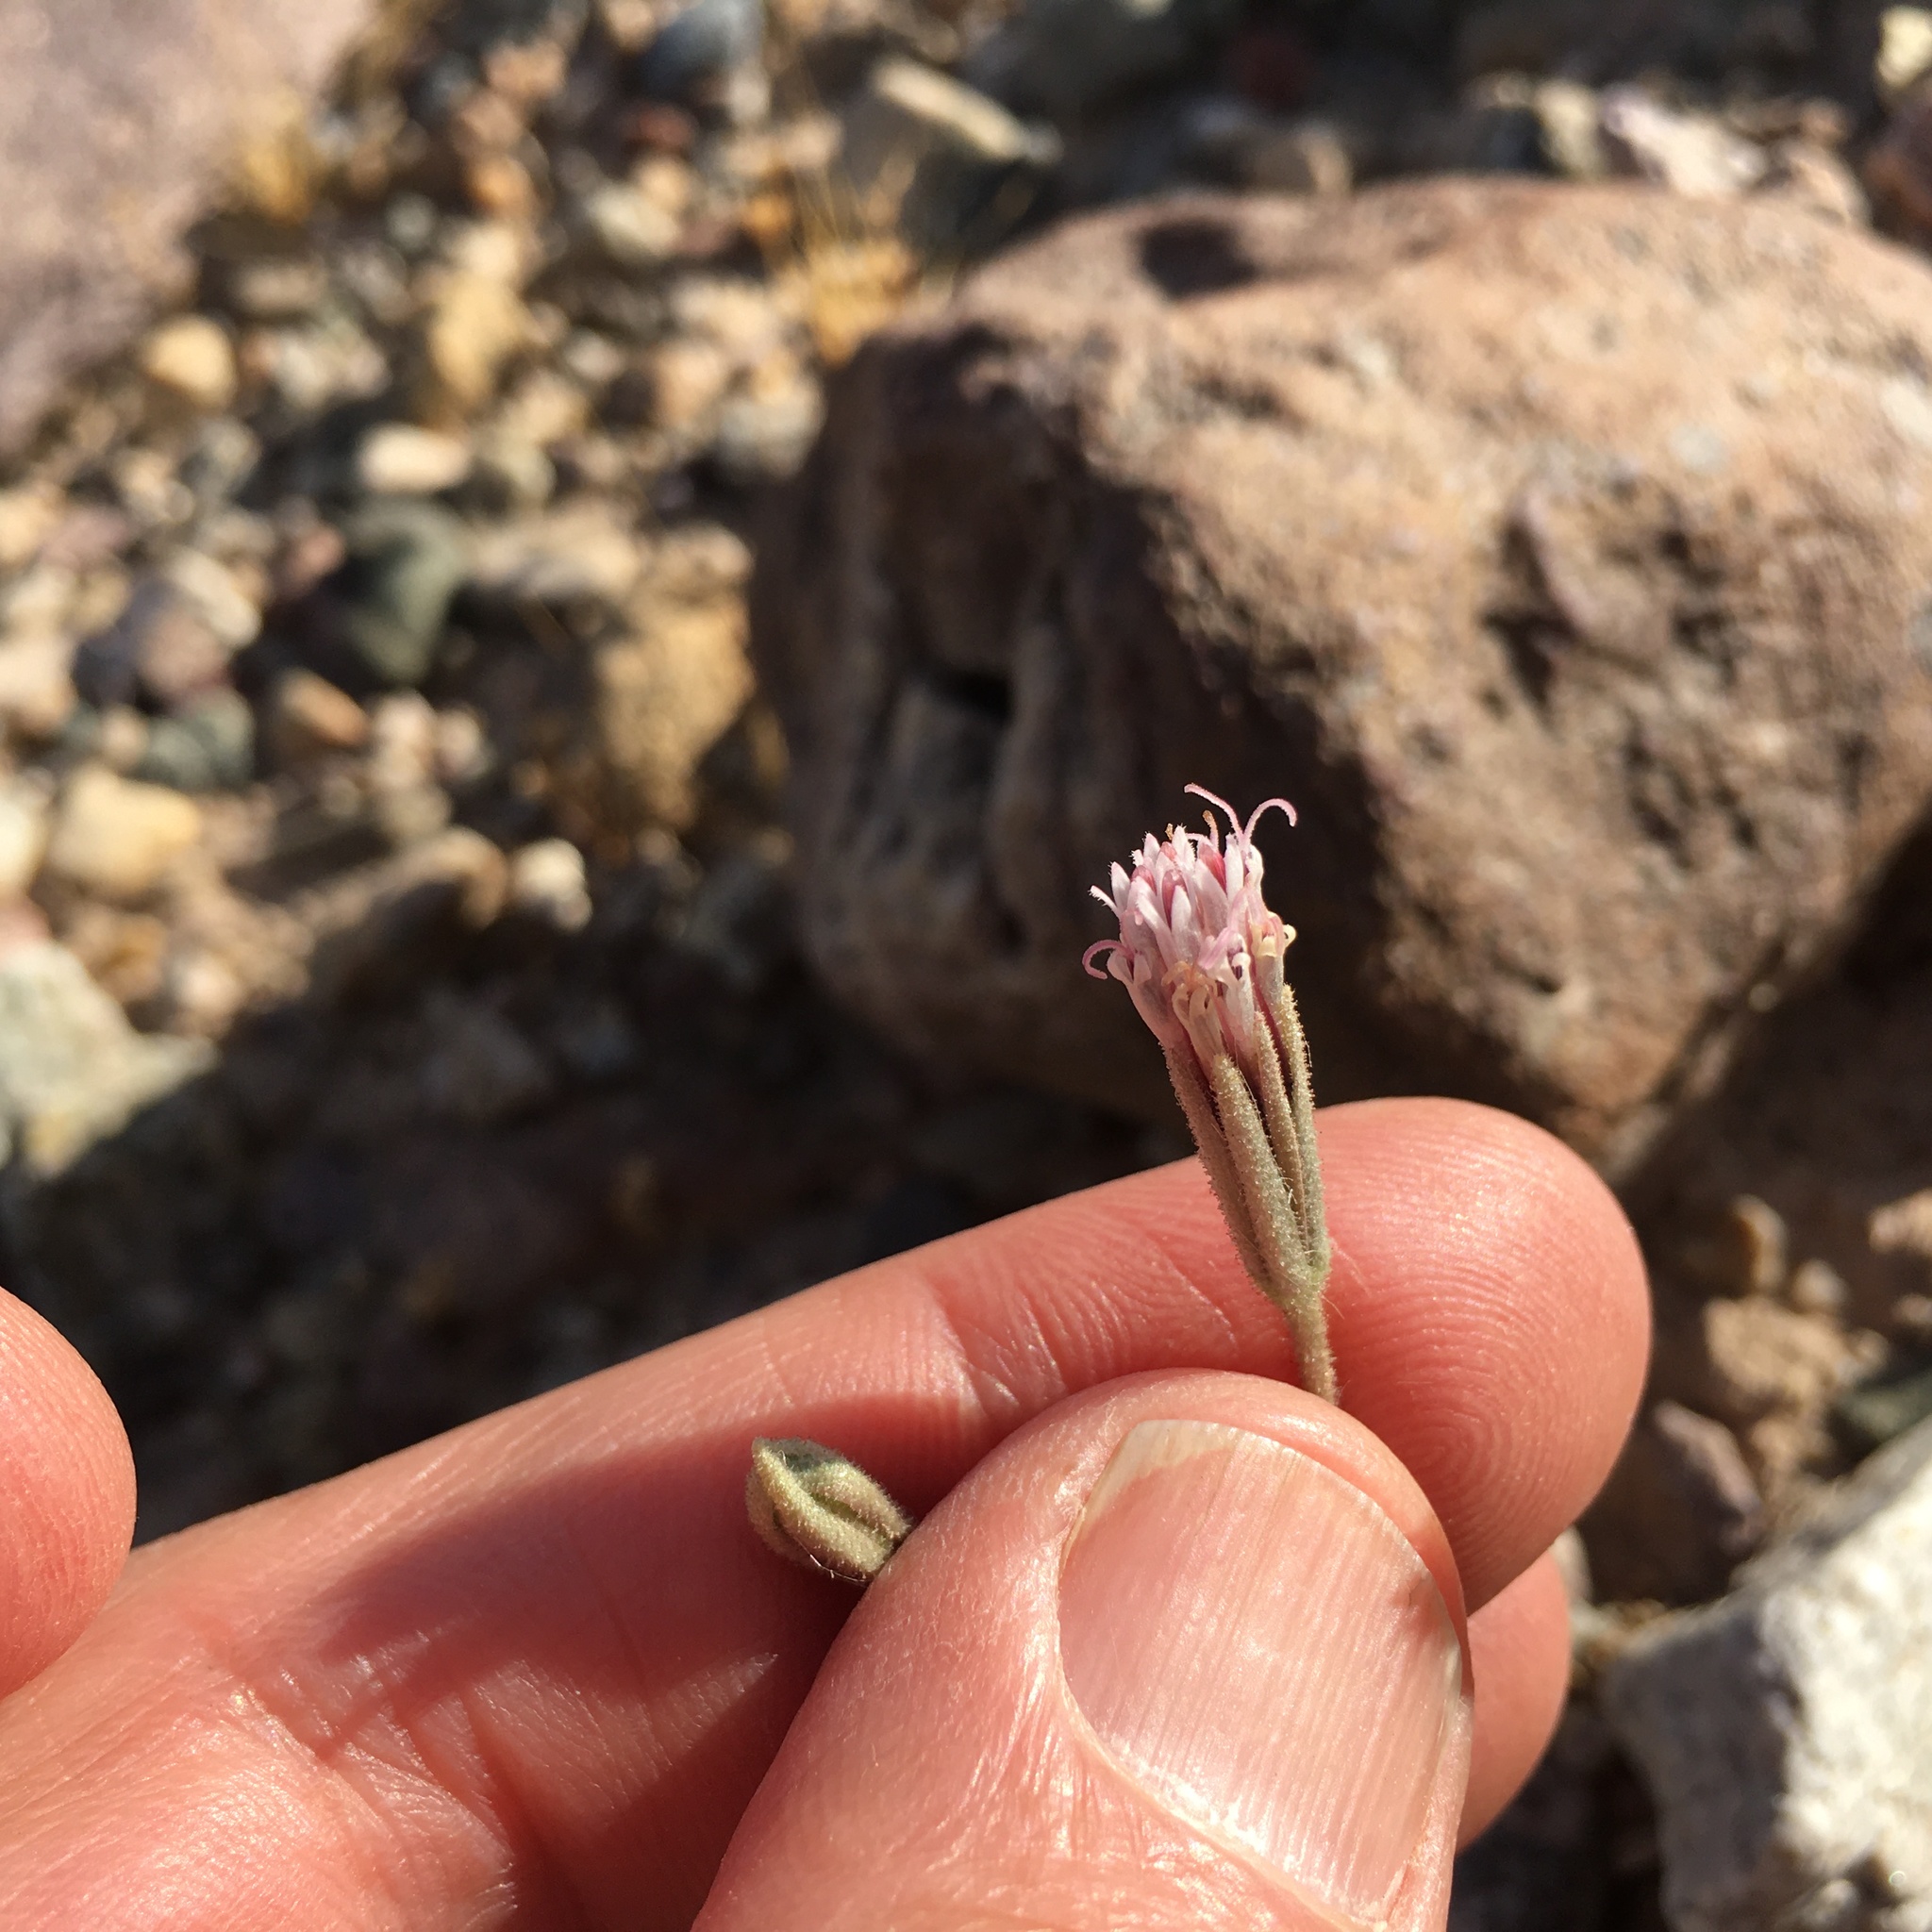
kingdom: Plantae
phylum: Tracheophyta
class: Magnoliopsida
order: Asterales
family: Asteraceae
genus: Palafoxia
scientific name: Palafoxia arida
